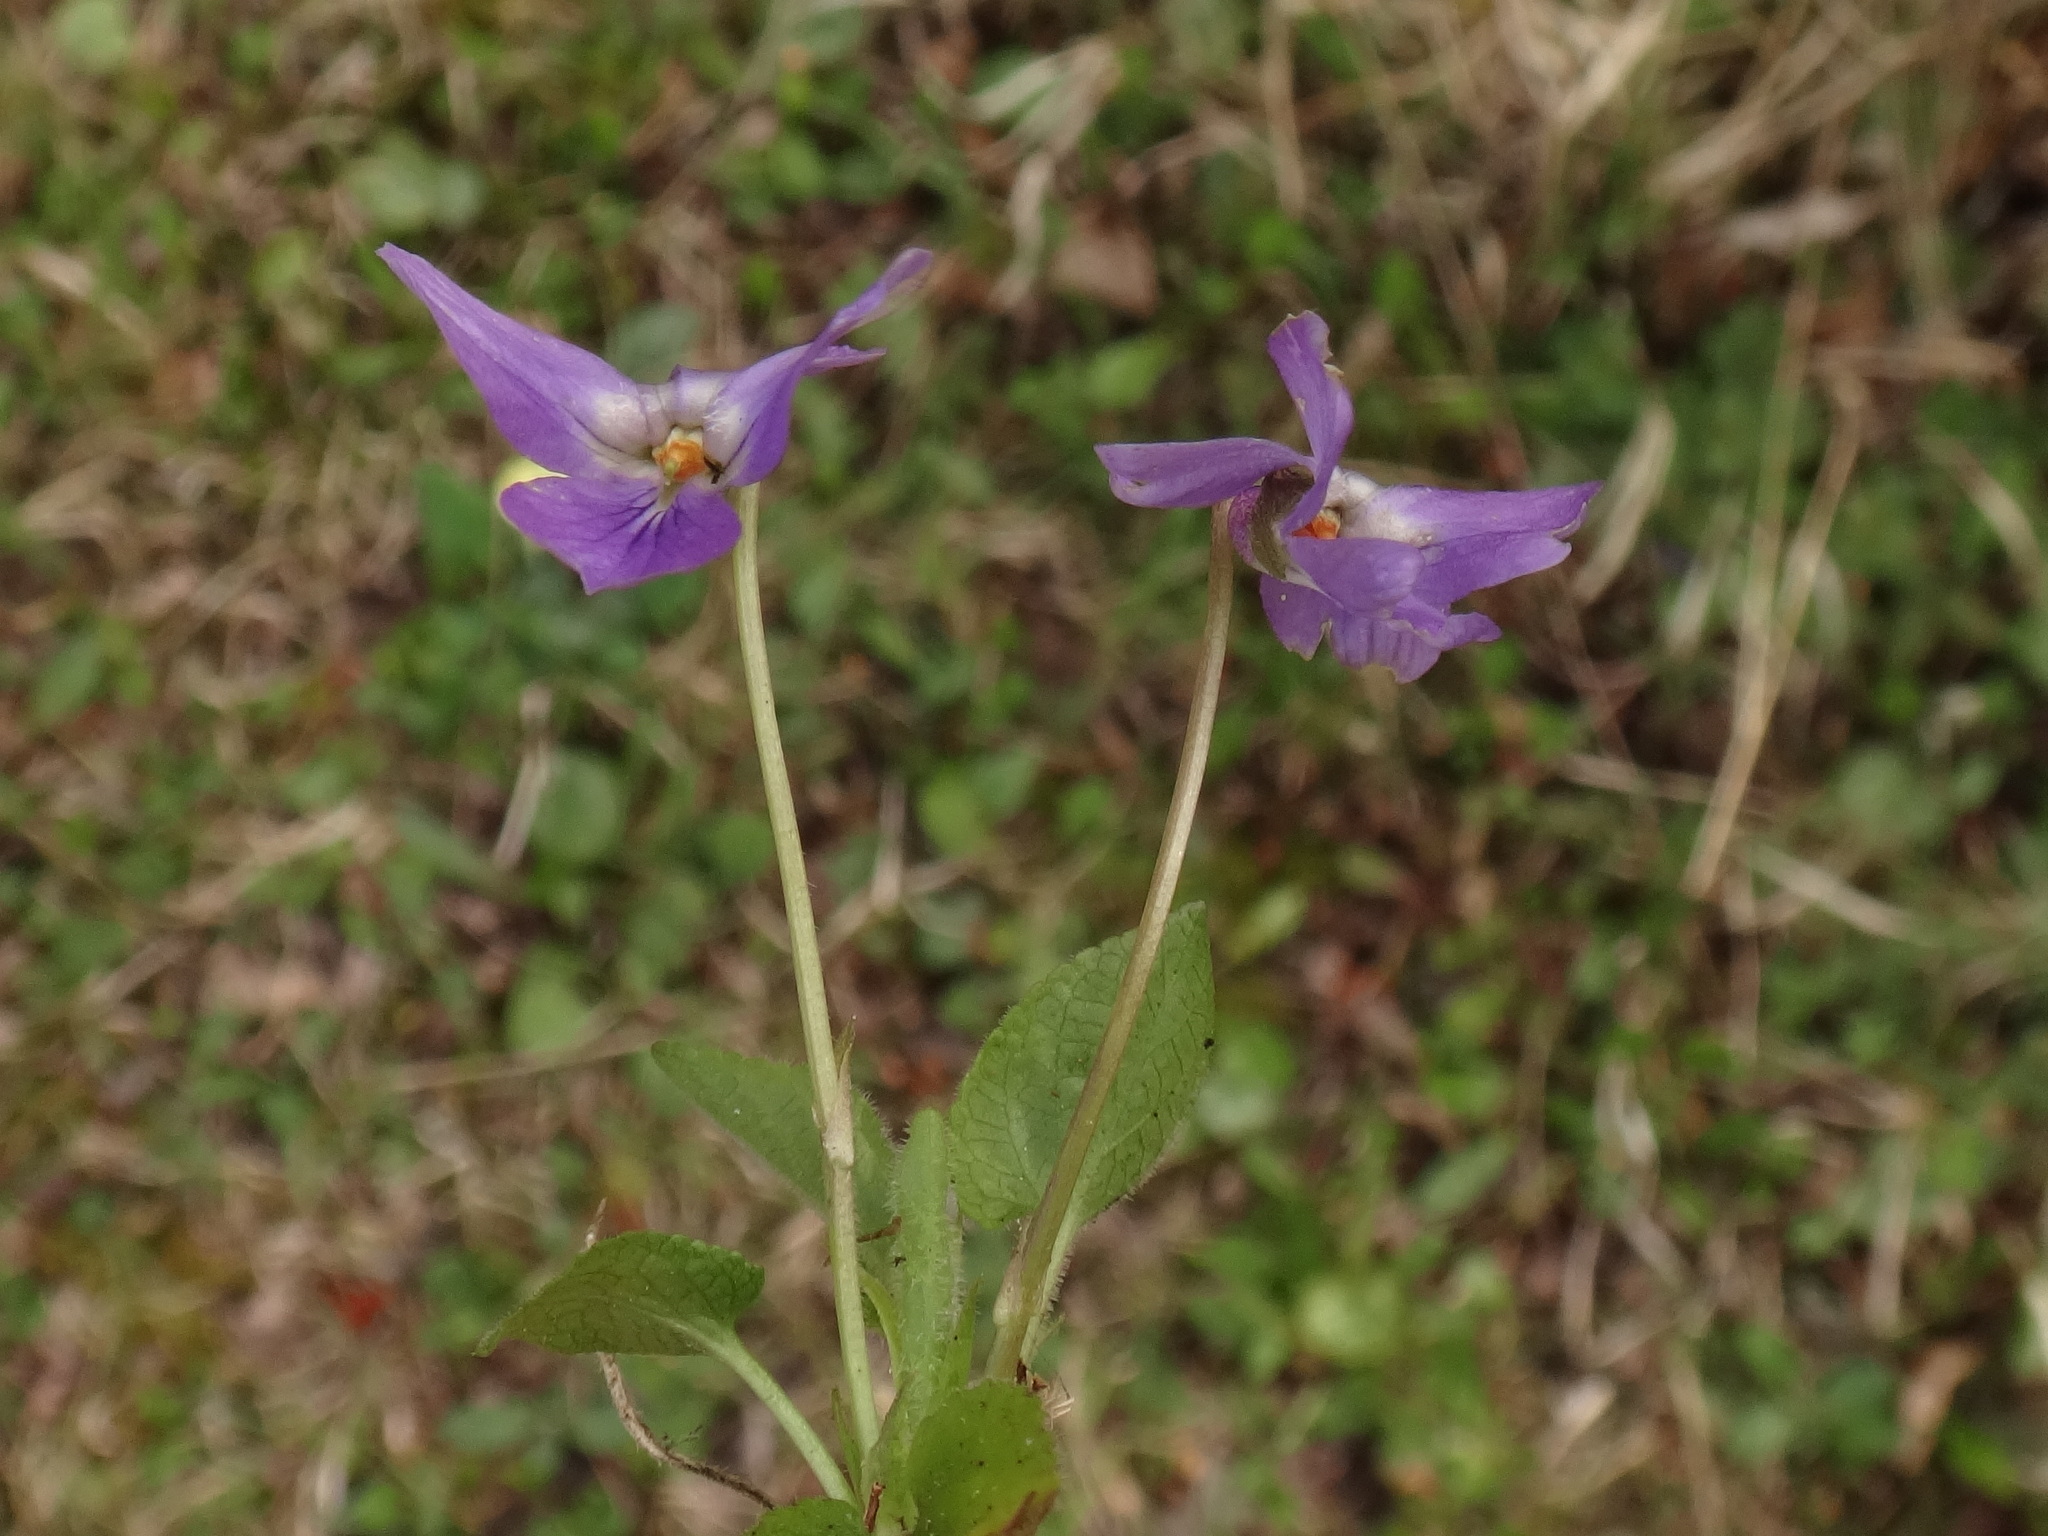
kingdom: Plantae
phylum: Tracheophyta
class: Magnoliopsida
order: Malpighiales
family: Violaceae
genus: Viola
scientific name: Viola hirta
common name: Hairy violet
